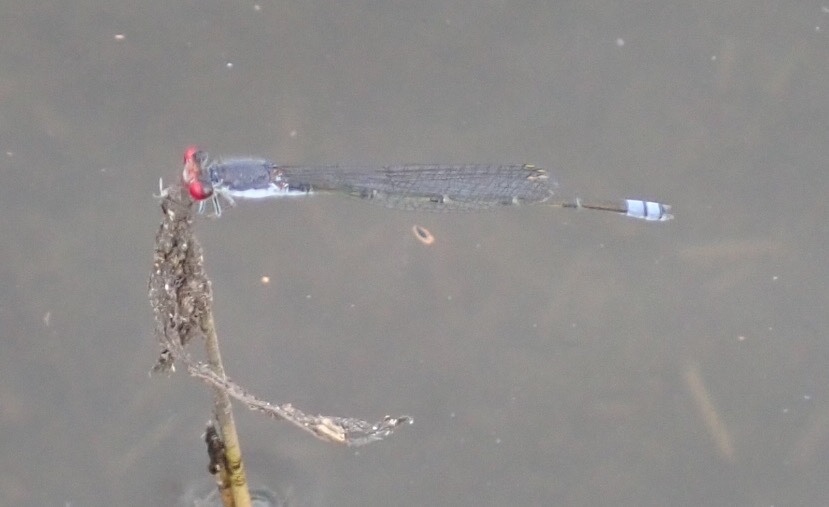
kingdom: Animalia
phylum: Arthropoda
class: Insecta
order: Odonata
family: Coenagrionidae
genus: Pseudagrion
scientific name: Pseudagrion sublacteum
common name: Cherry-eye sprite
